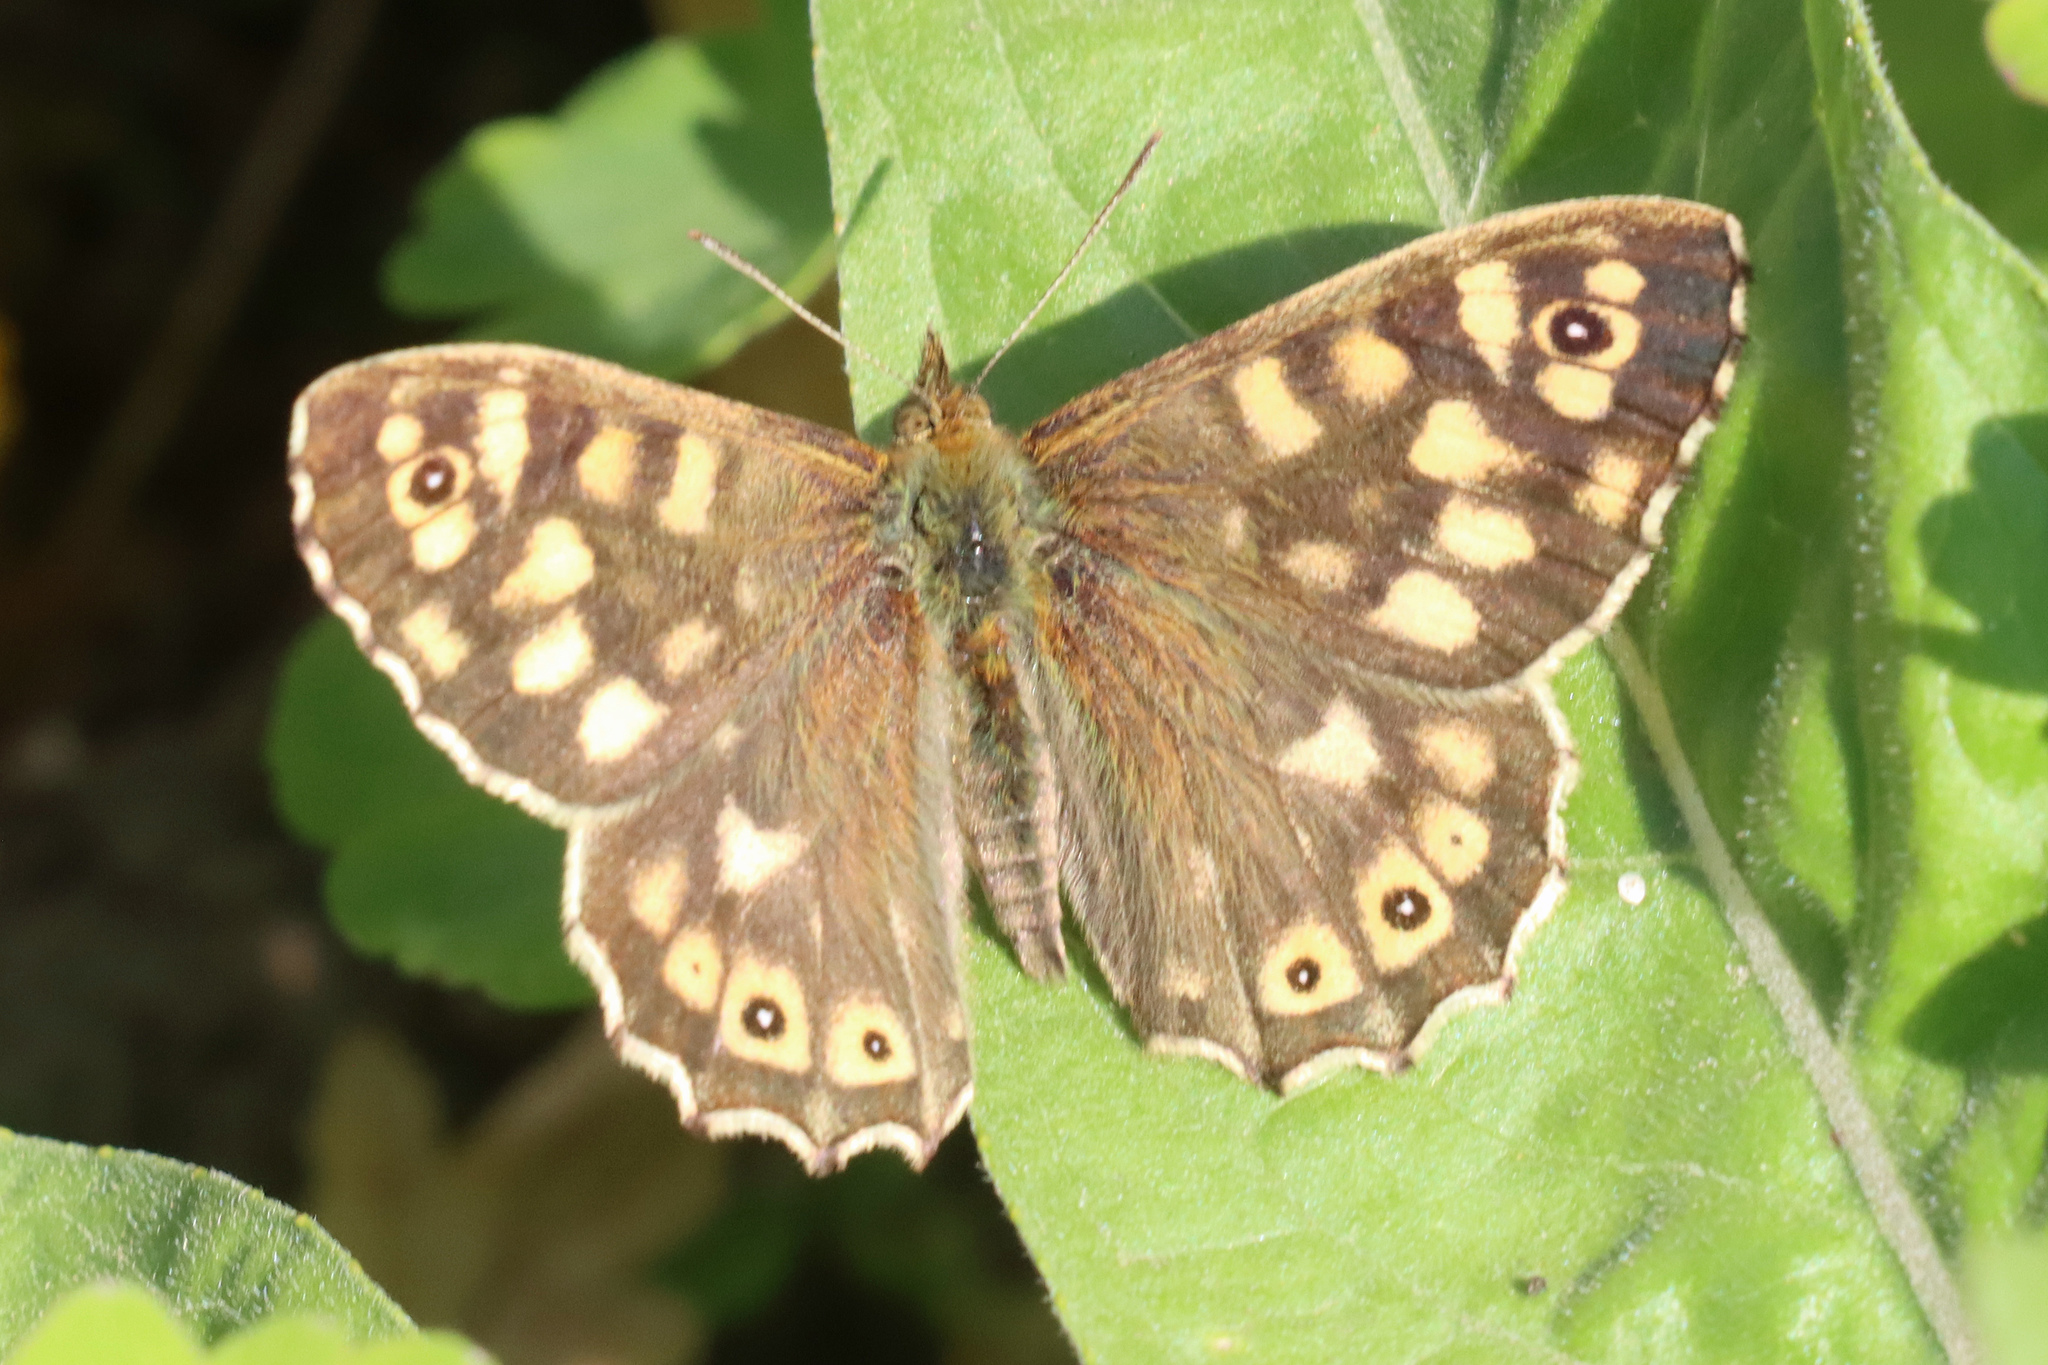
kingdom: Animalia
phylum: Arthropoda
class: Insecta
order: Lepidoptera
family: Nymphalidae
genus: Pararge
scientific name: Pararge aegeria
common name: Speckled wood
